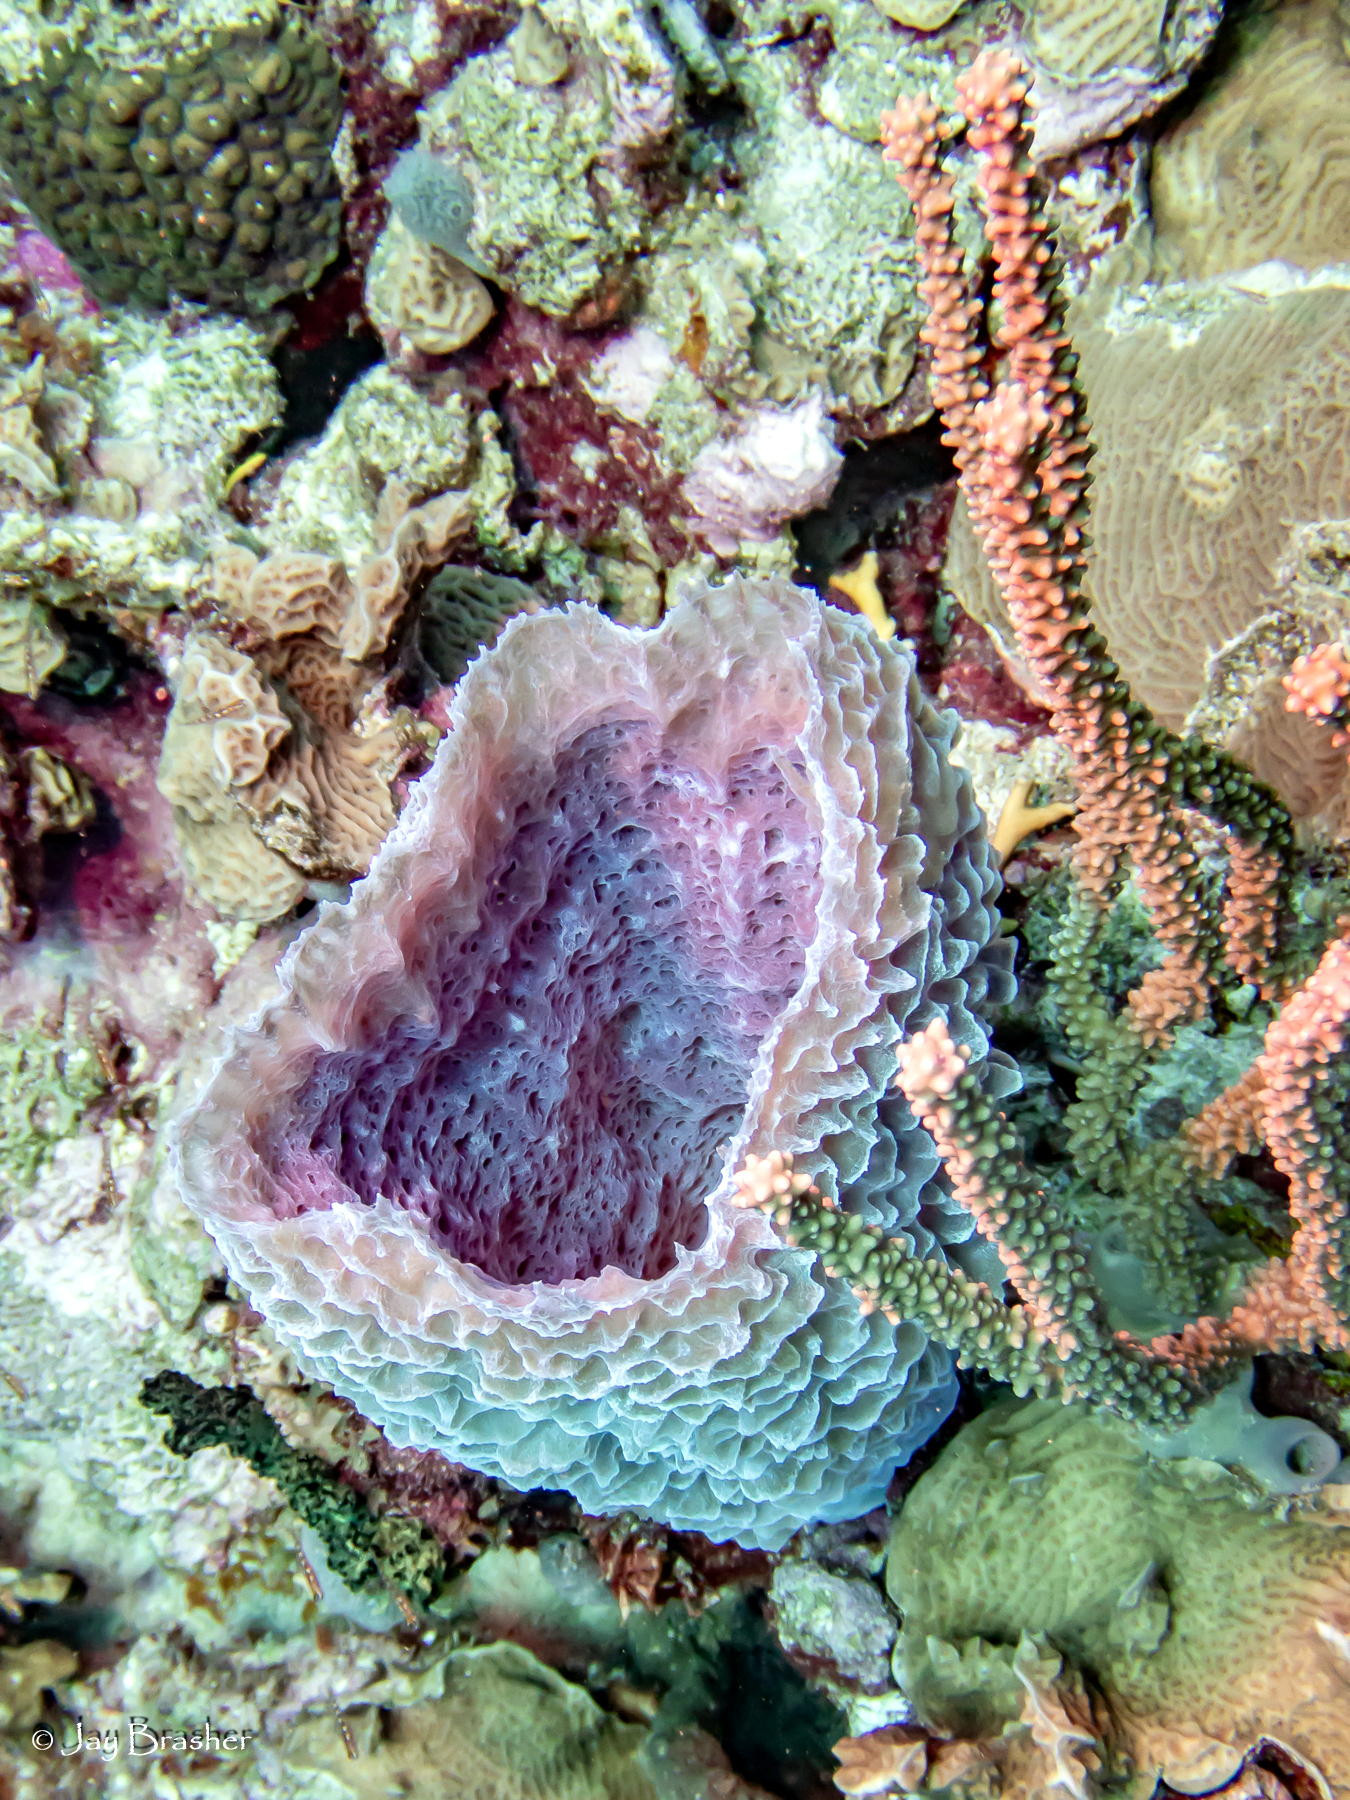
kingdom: Animalia
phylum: Porifera
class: Demospongiae
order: Haplosclerida
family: Callyspongiidae
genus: Callyspongia
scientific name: Callyspongia plicifera
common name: Azure vase sponge
